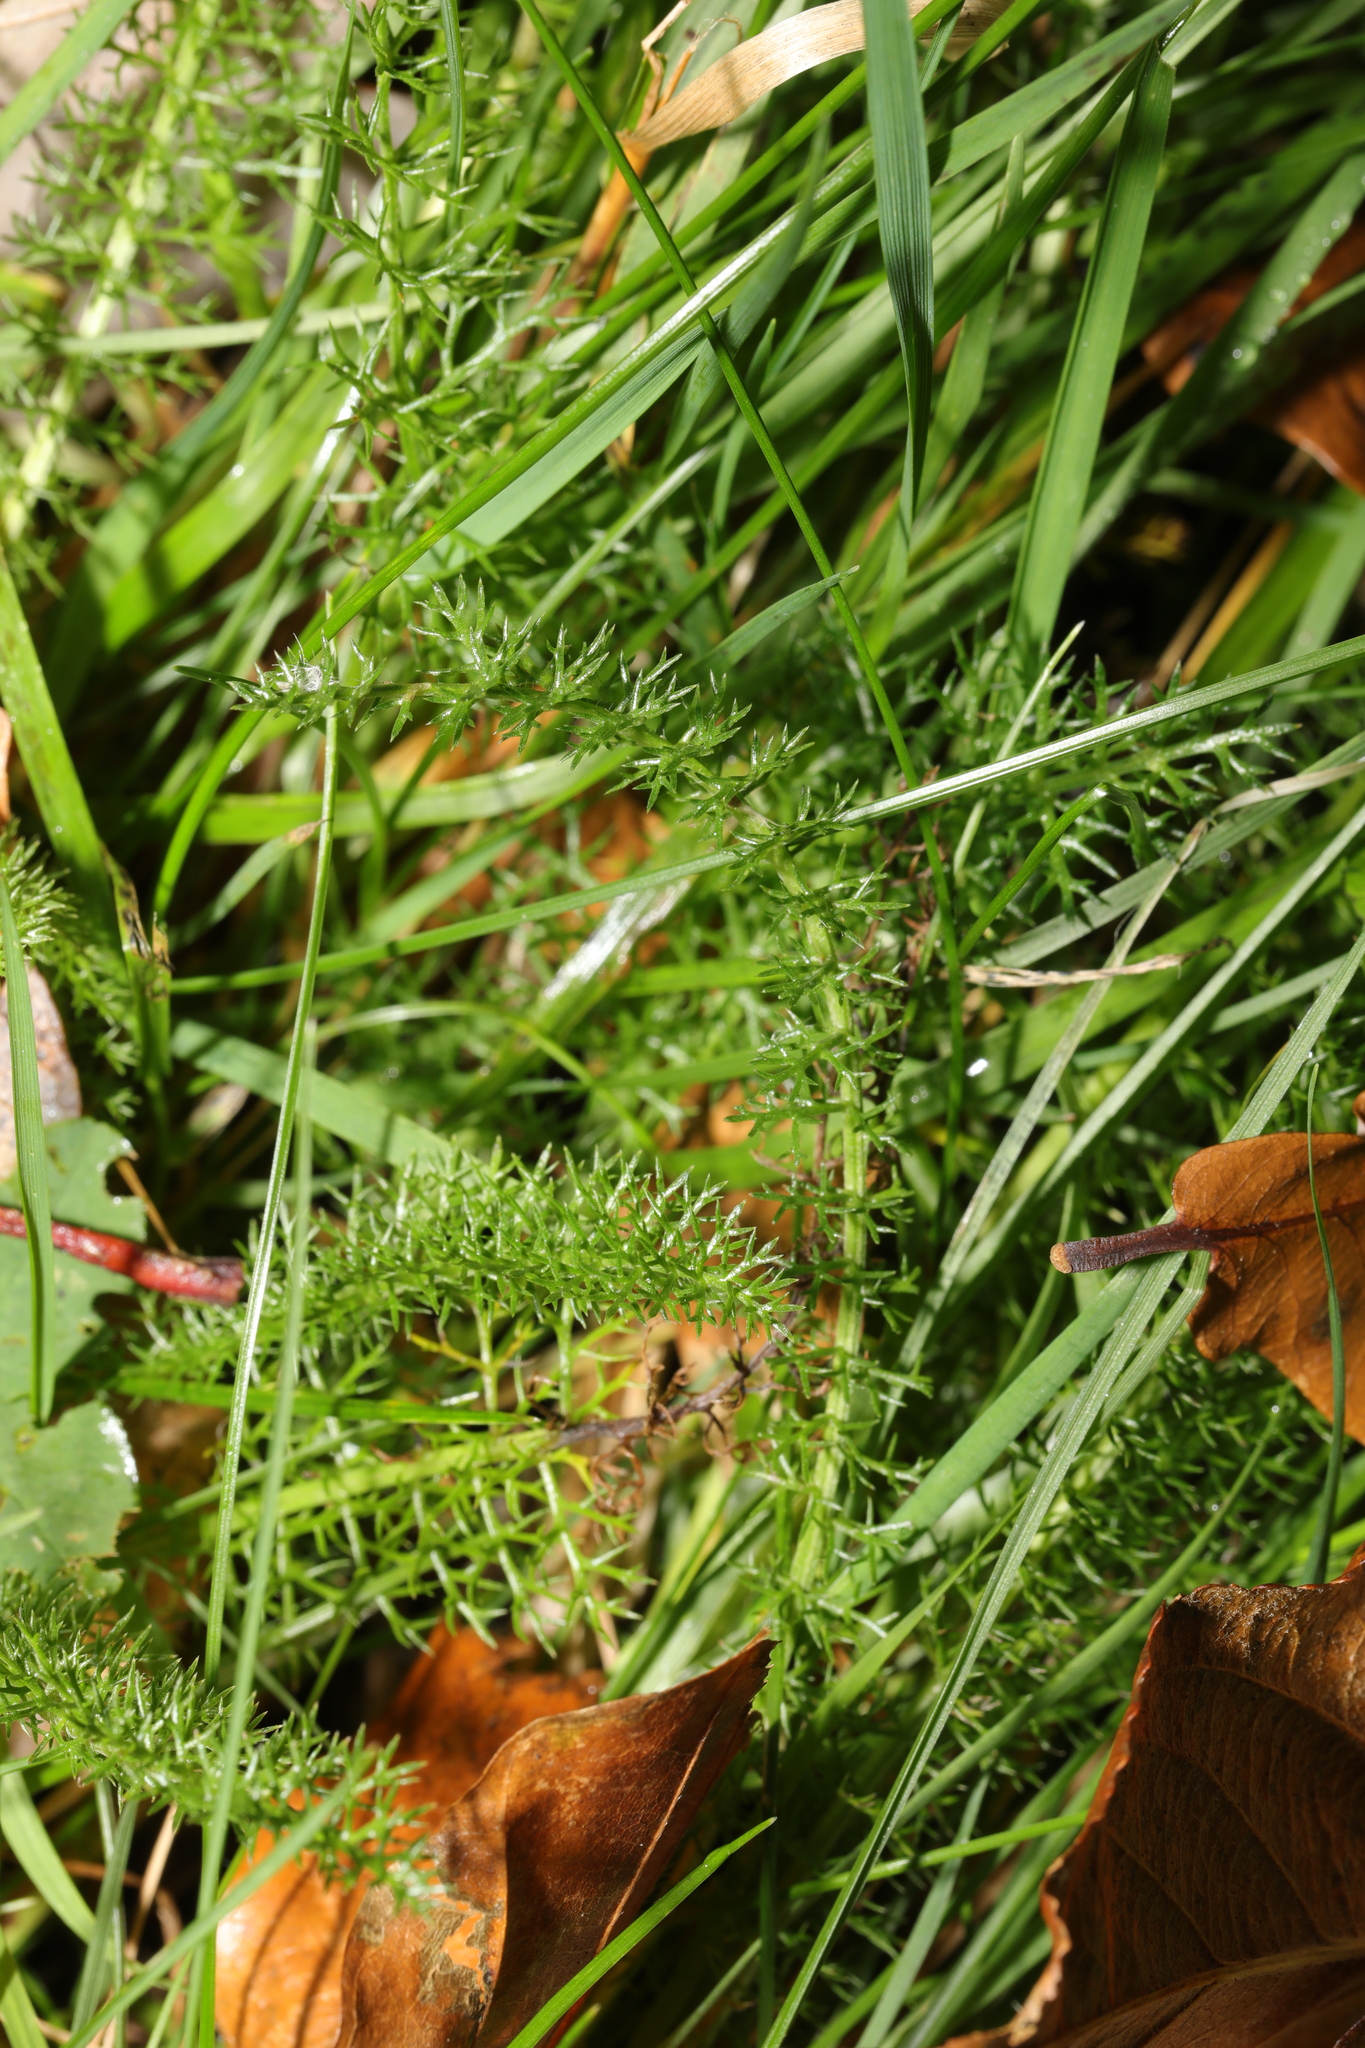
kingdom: Plantae
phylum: Tracheophyta
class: Magnoliopsida
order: Asterales
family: Asteraceae
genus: Achillea
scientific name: Achillea millefolium
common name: Yarrow
